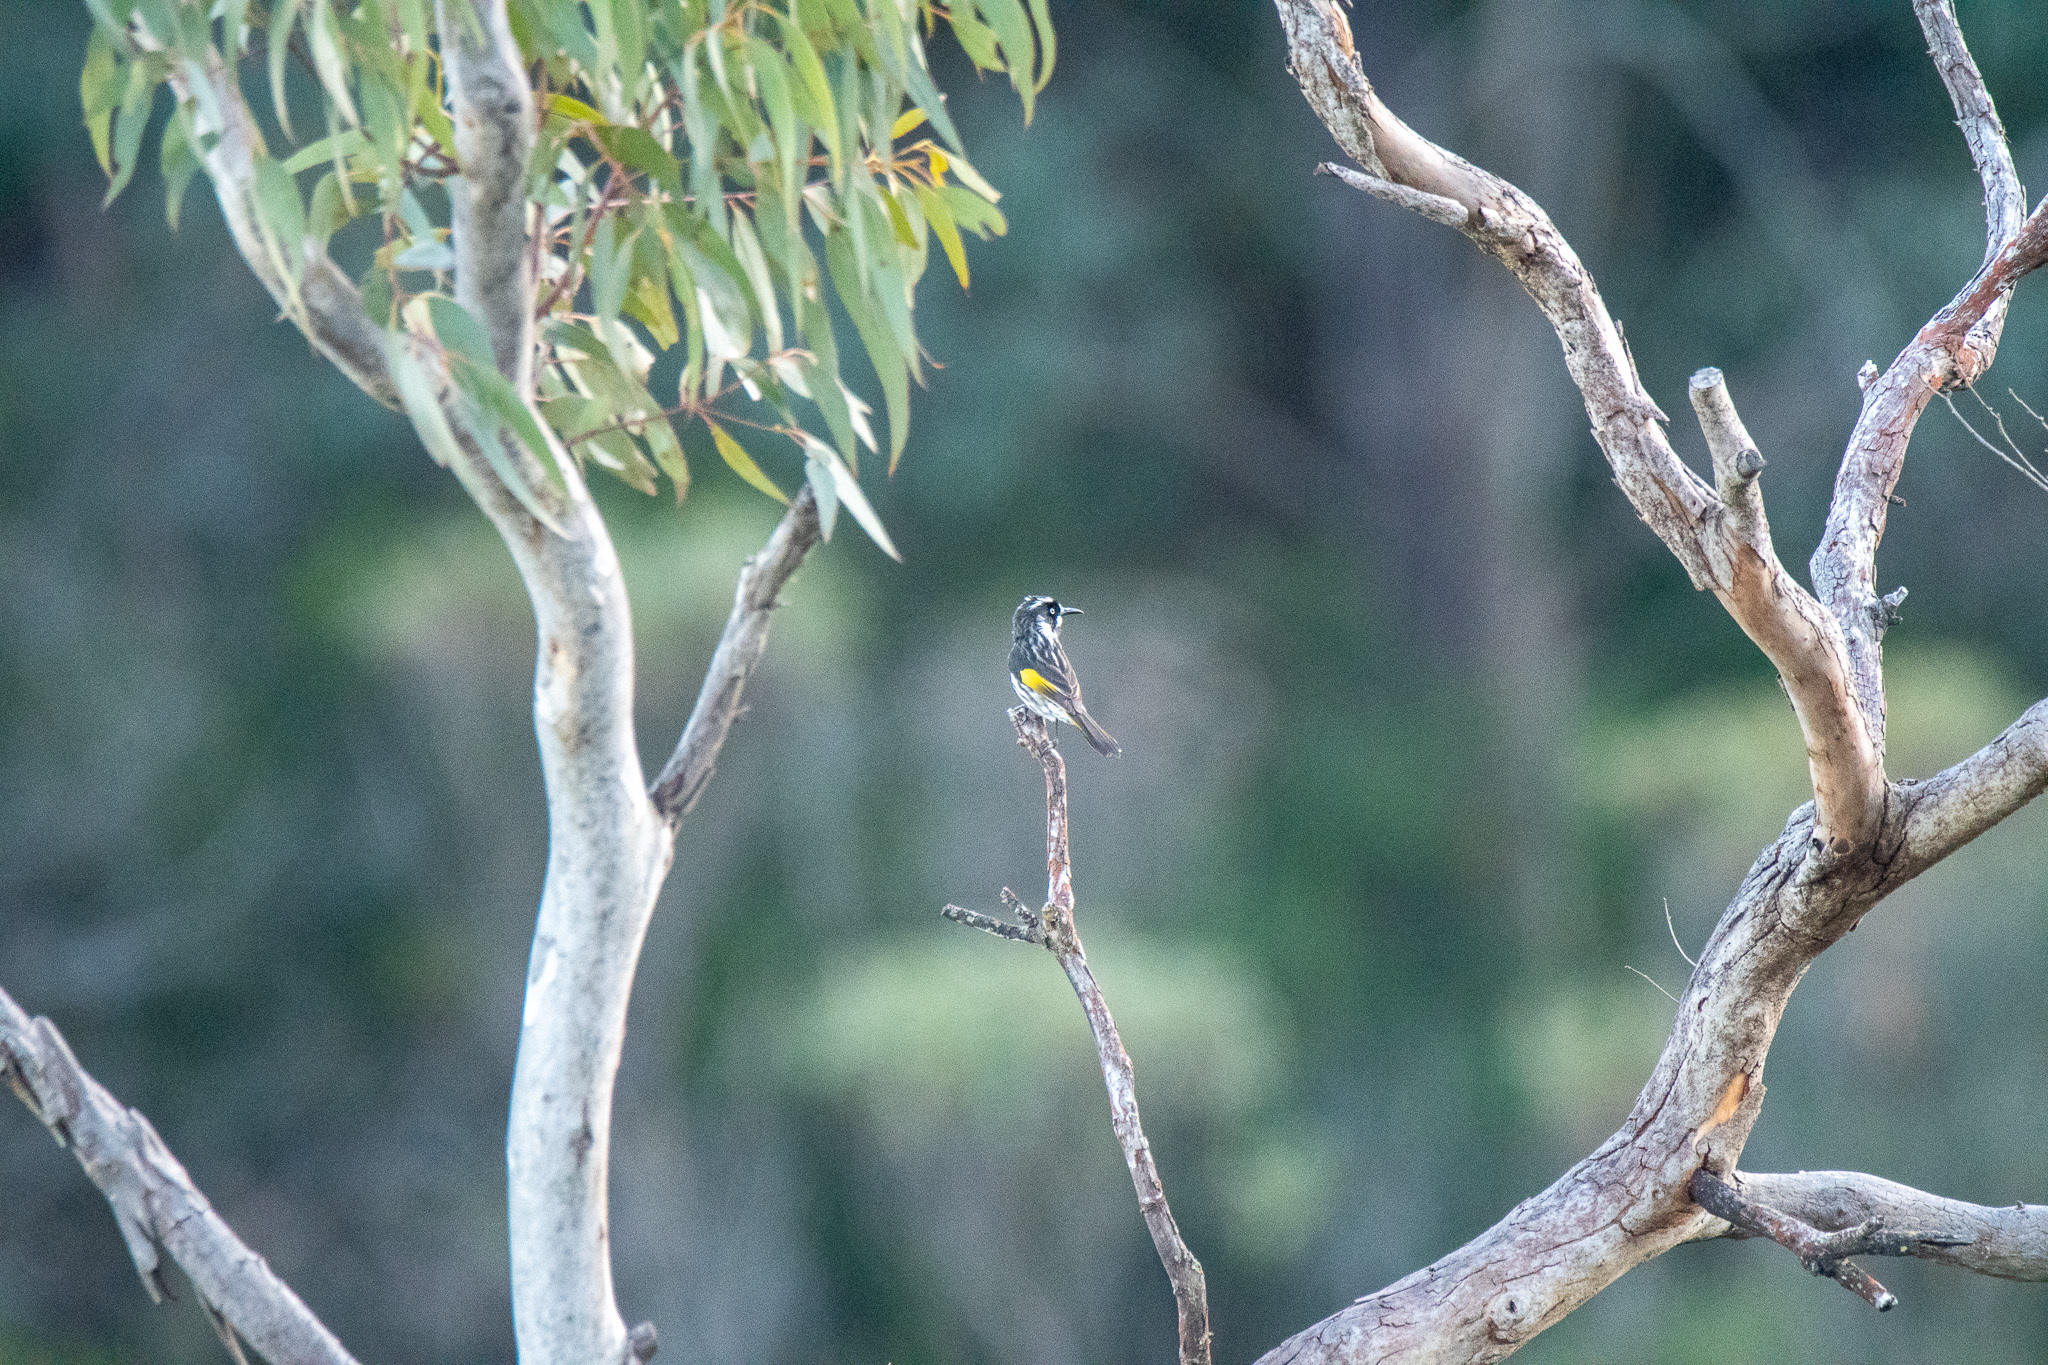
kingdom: Animalia
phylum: Chordata
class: Aves
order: Passeriformes
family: Meliphagidae
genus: Phylidonyris
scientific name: Phylidonyris novaehollandiae
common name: New holland honeyeater
